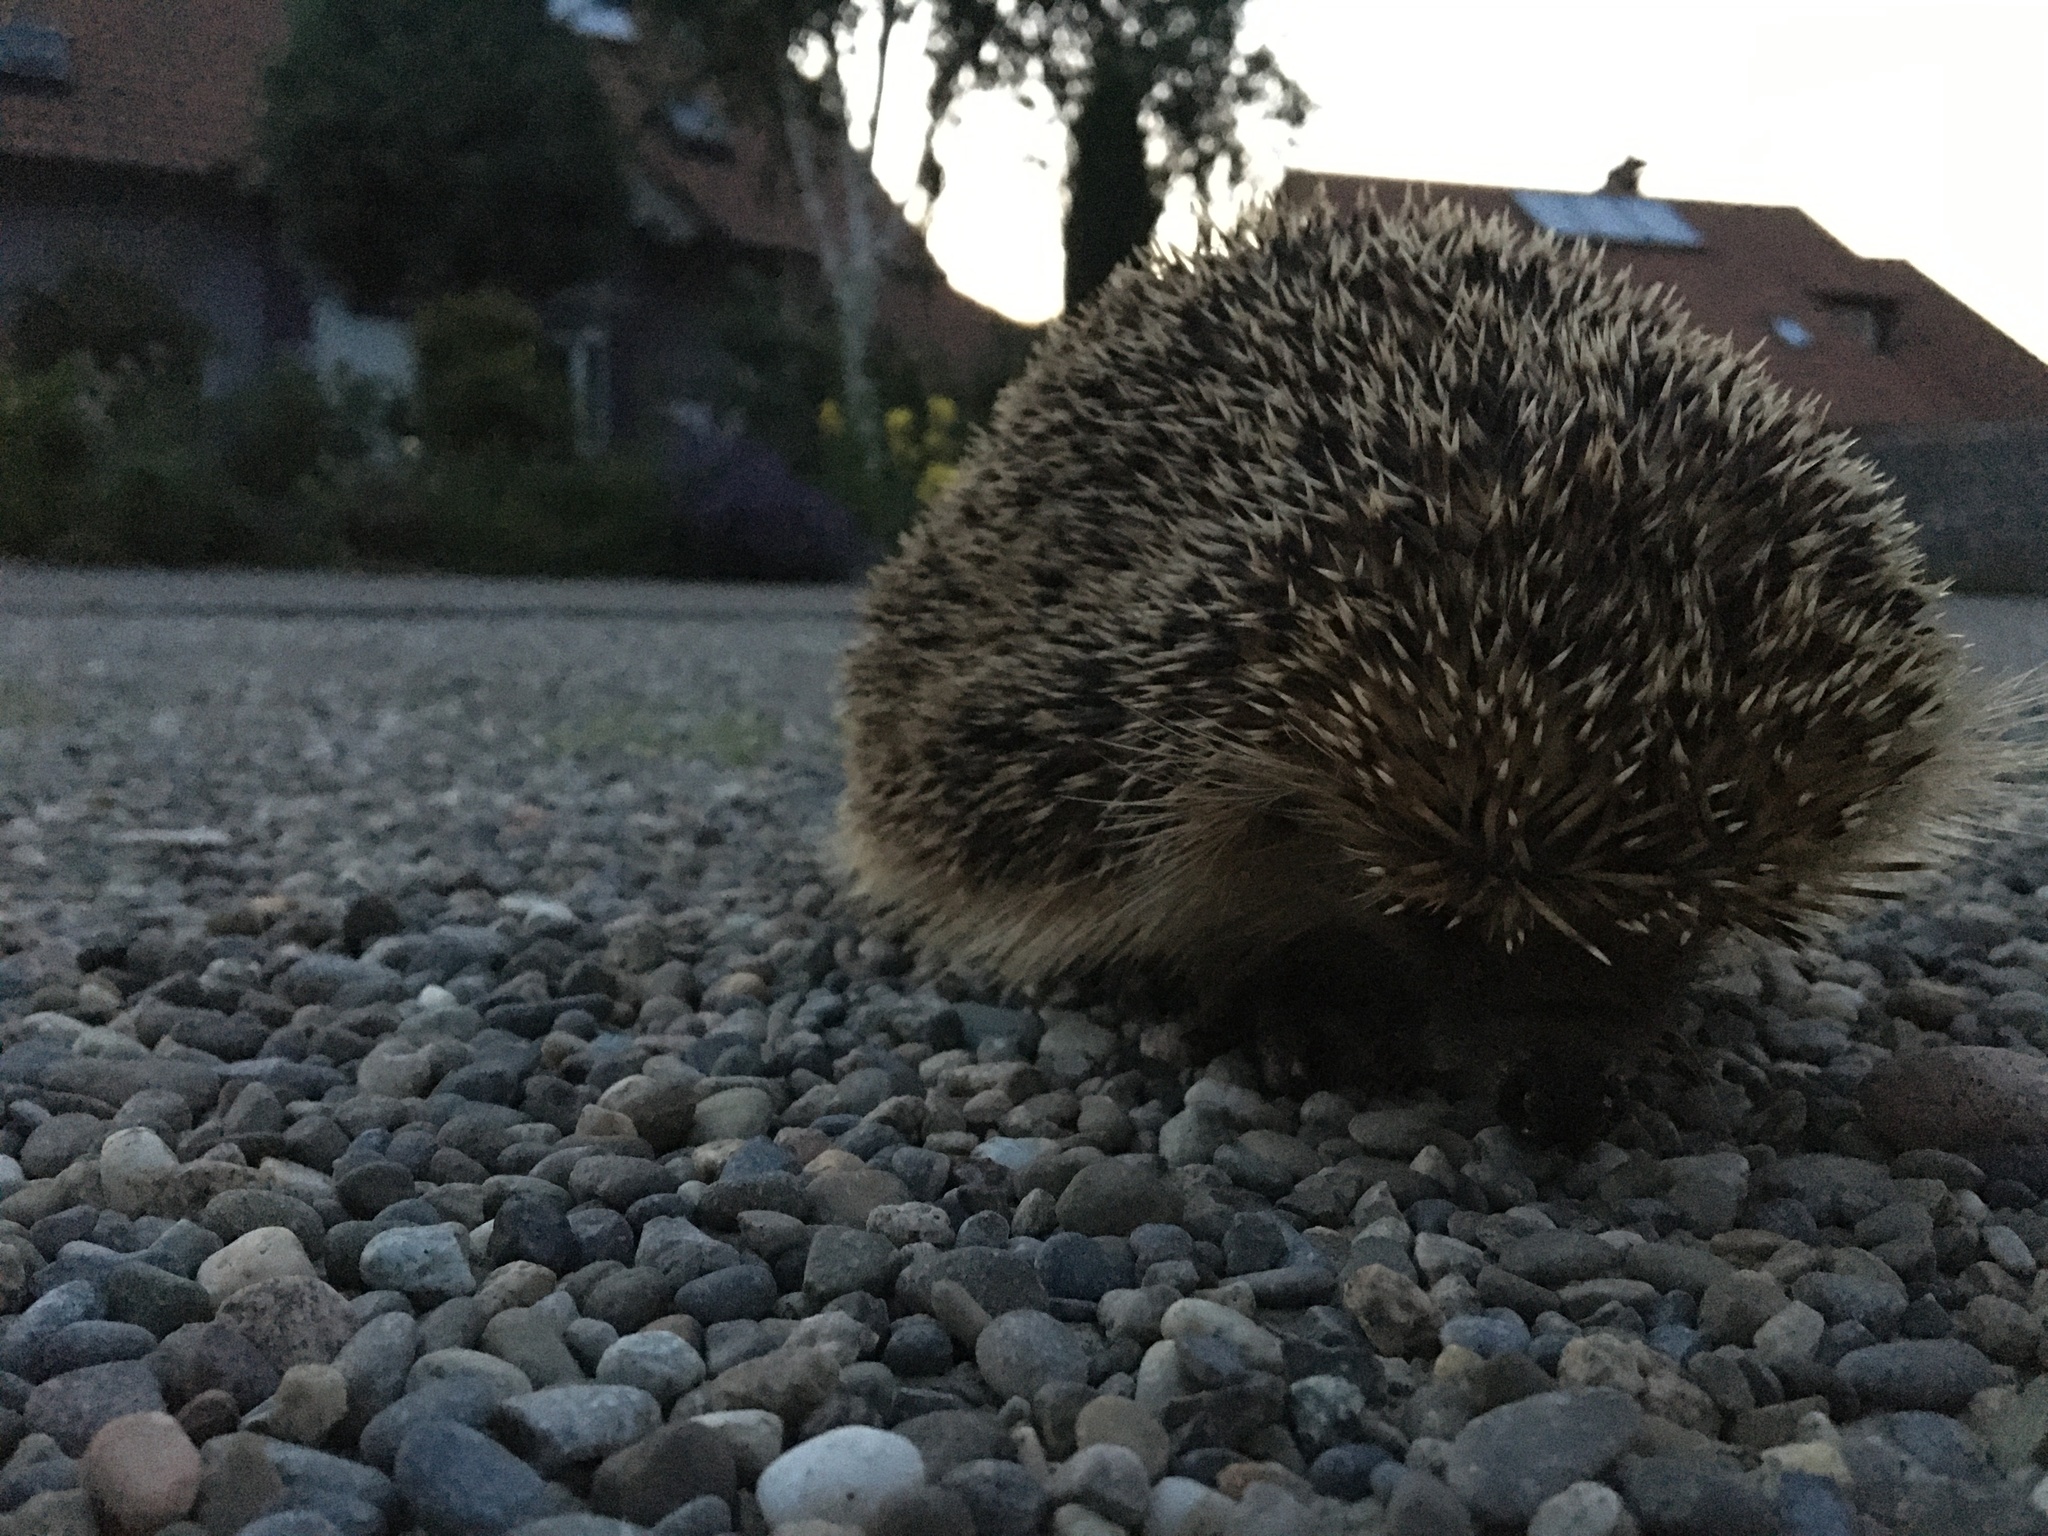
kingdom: Animalia
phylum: Chordata
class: Mammalia
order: Erinaceomorpha
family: Erinaceidae
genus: Erinaceus
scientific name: Erinaceus europaeus
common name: West european hedgehog
